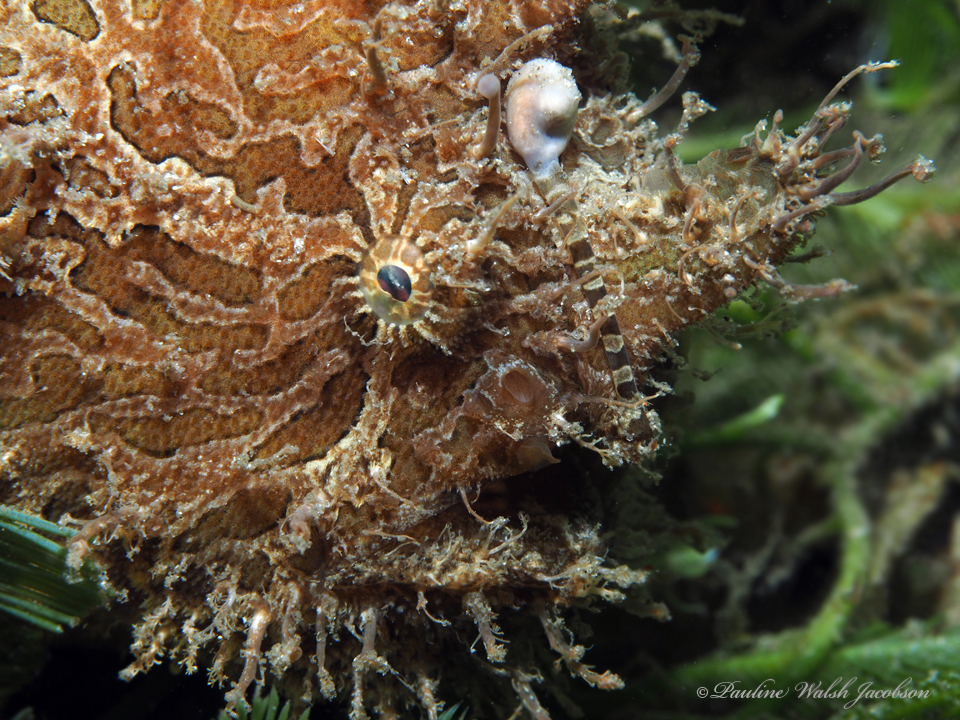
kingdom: Animalia
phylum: Chordata
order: Lophiiformes
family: Antennariidae
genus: Antennarius
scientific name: Antennarius striatus
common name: Striated frogfish
